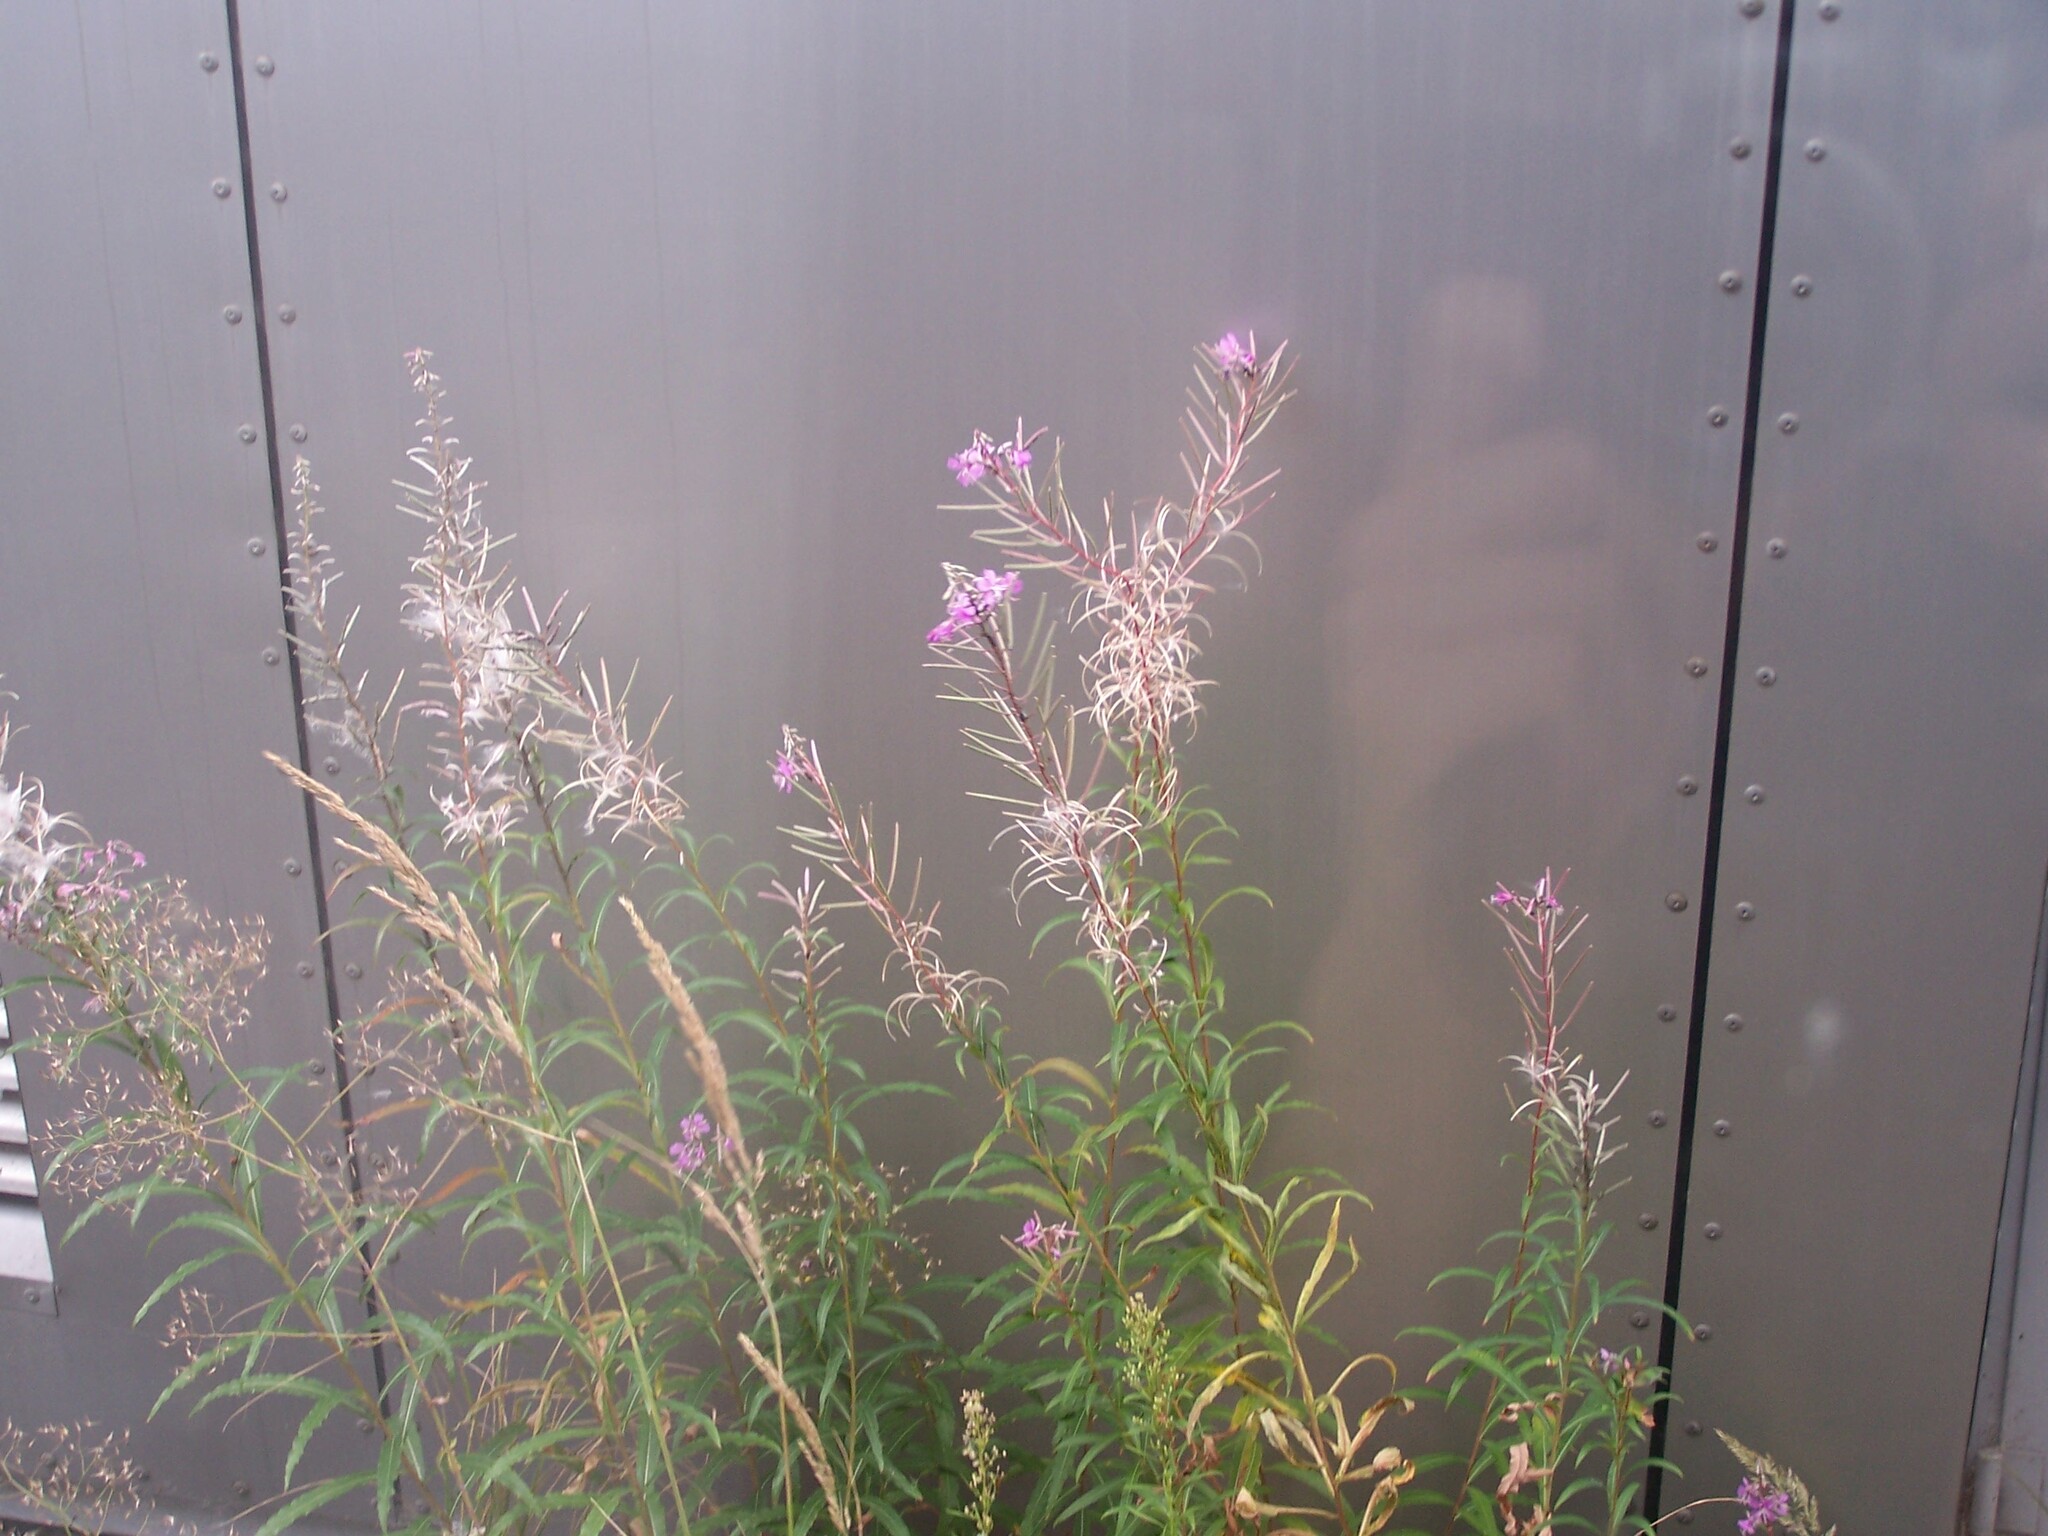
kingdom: Plantae
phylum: Tracheophyta
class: Magnoliopsida
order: Myrtales
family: Onagraceae
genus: Chamaenerion
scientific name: Chamaenerion angustifolium
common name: Fireweed
